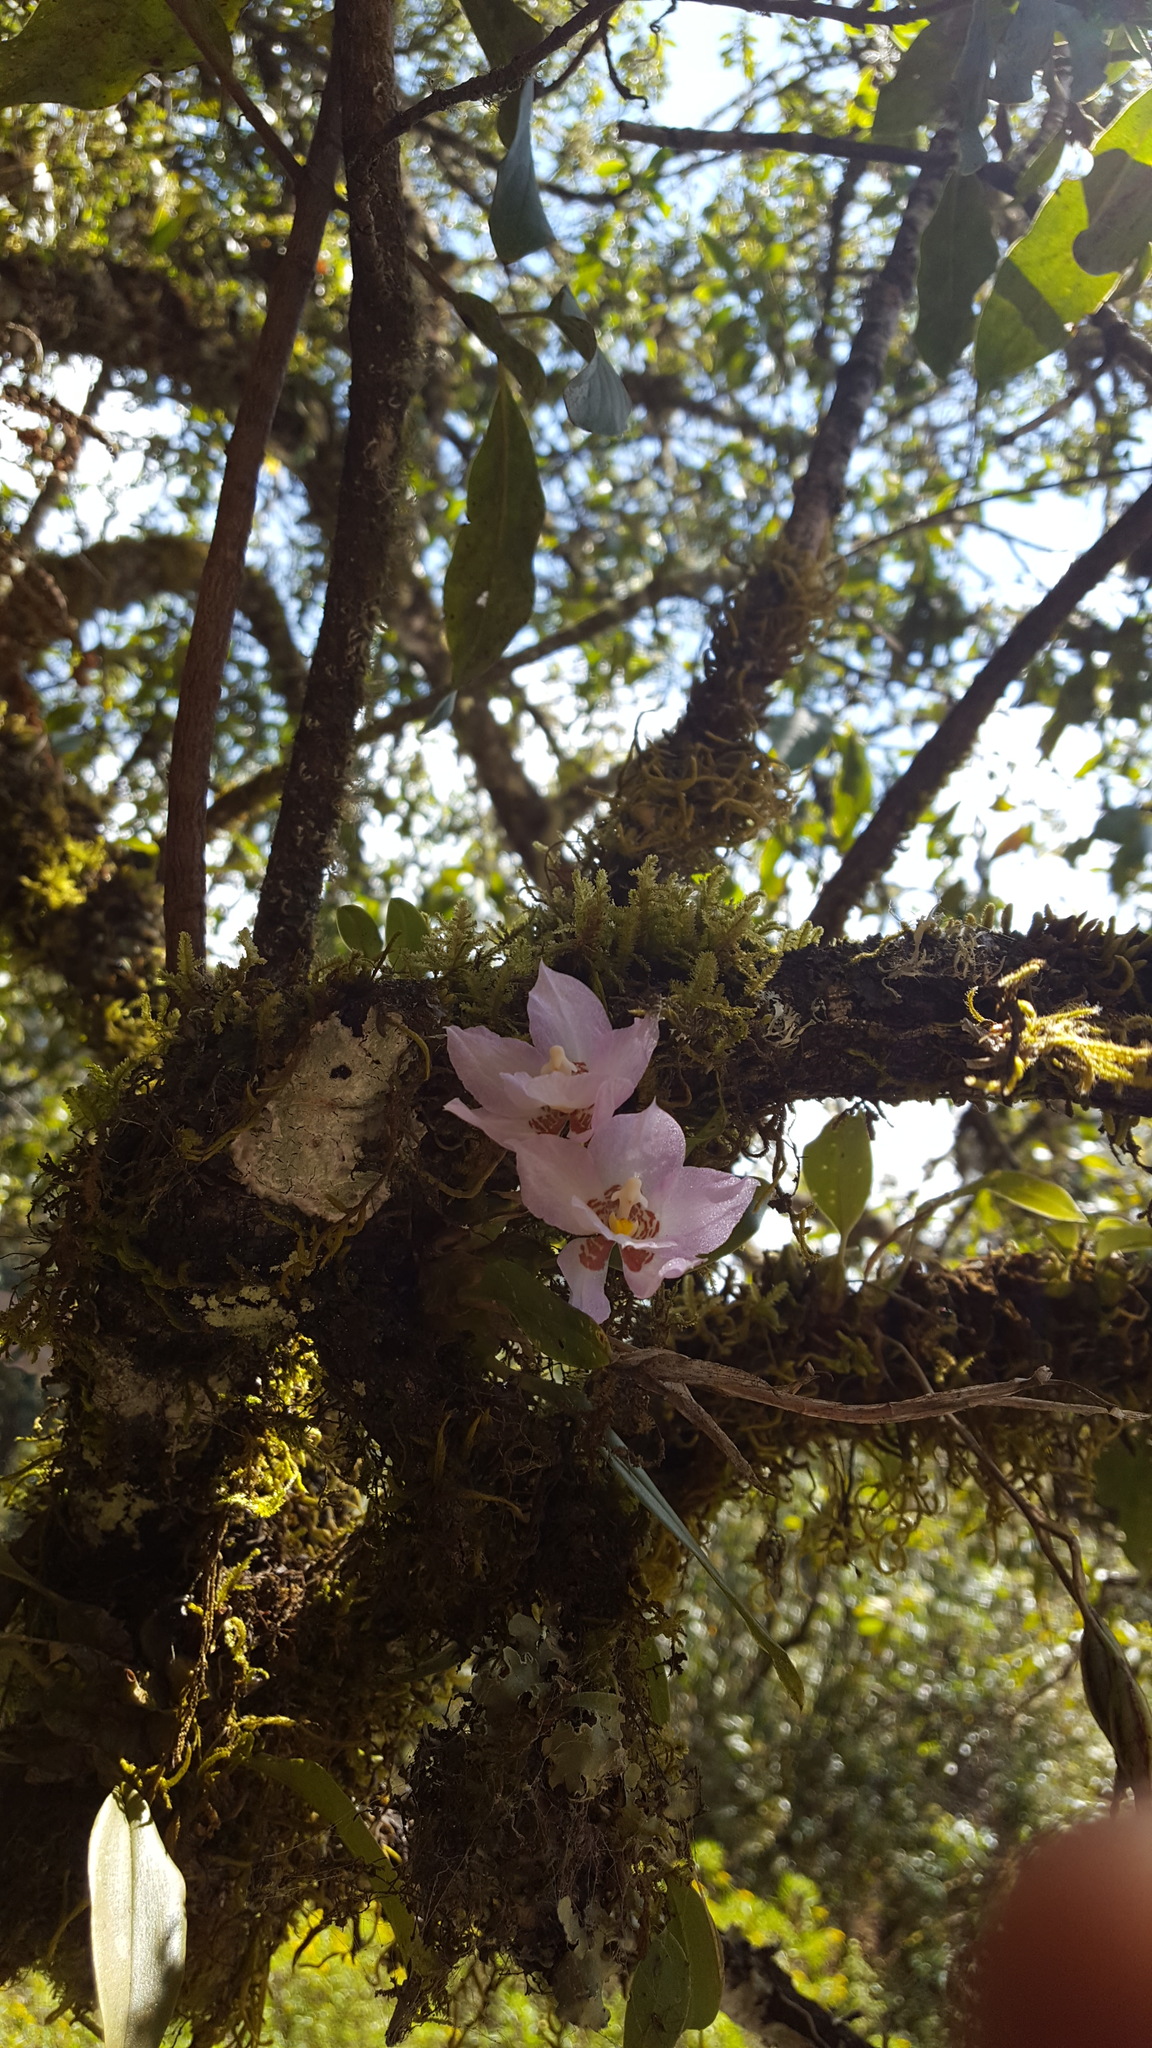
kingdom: Plantae
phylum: Tracheophyta
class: Liliopsida
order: Asparagales
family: Orchidaceae
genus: Rhynchostele
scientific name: Rhynchostele cervantesii
